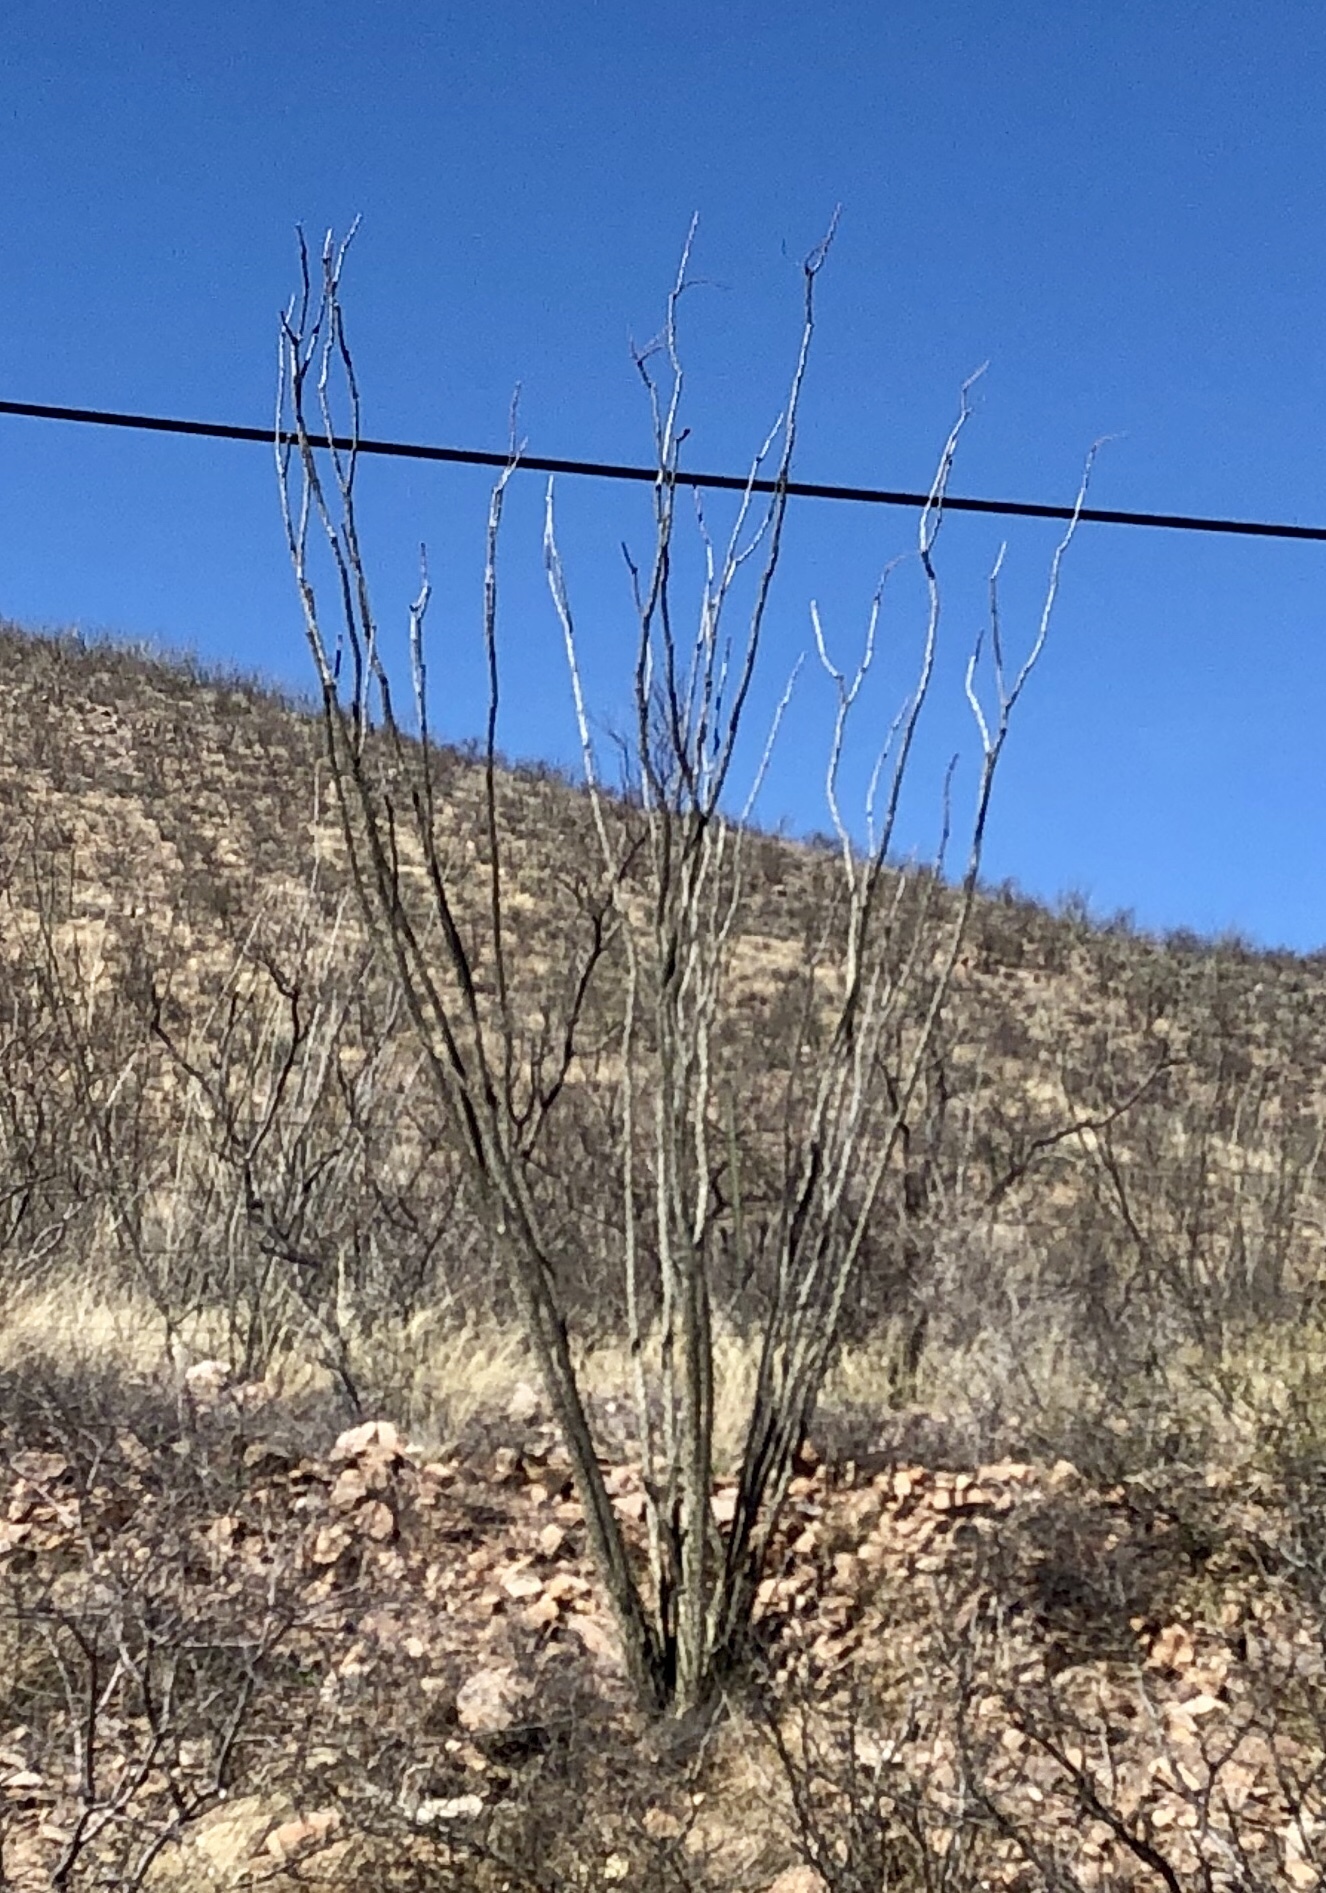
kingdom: Plantae
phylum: Tracheophyta
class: Magnoliopsida
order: Ericales
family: Fouquieriaceae
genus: Fouquieria
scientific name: Fouquieria splendens
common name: Vine-cactus
